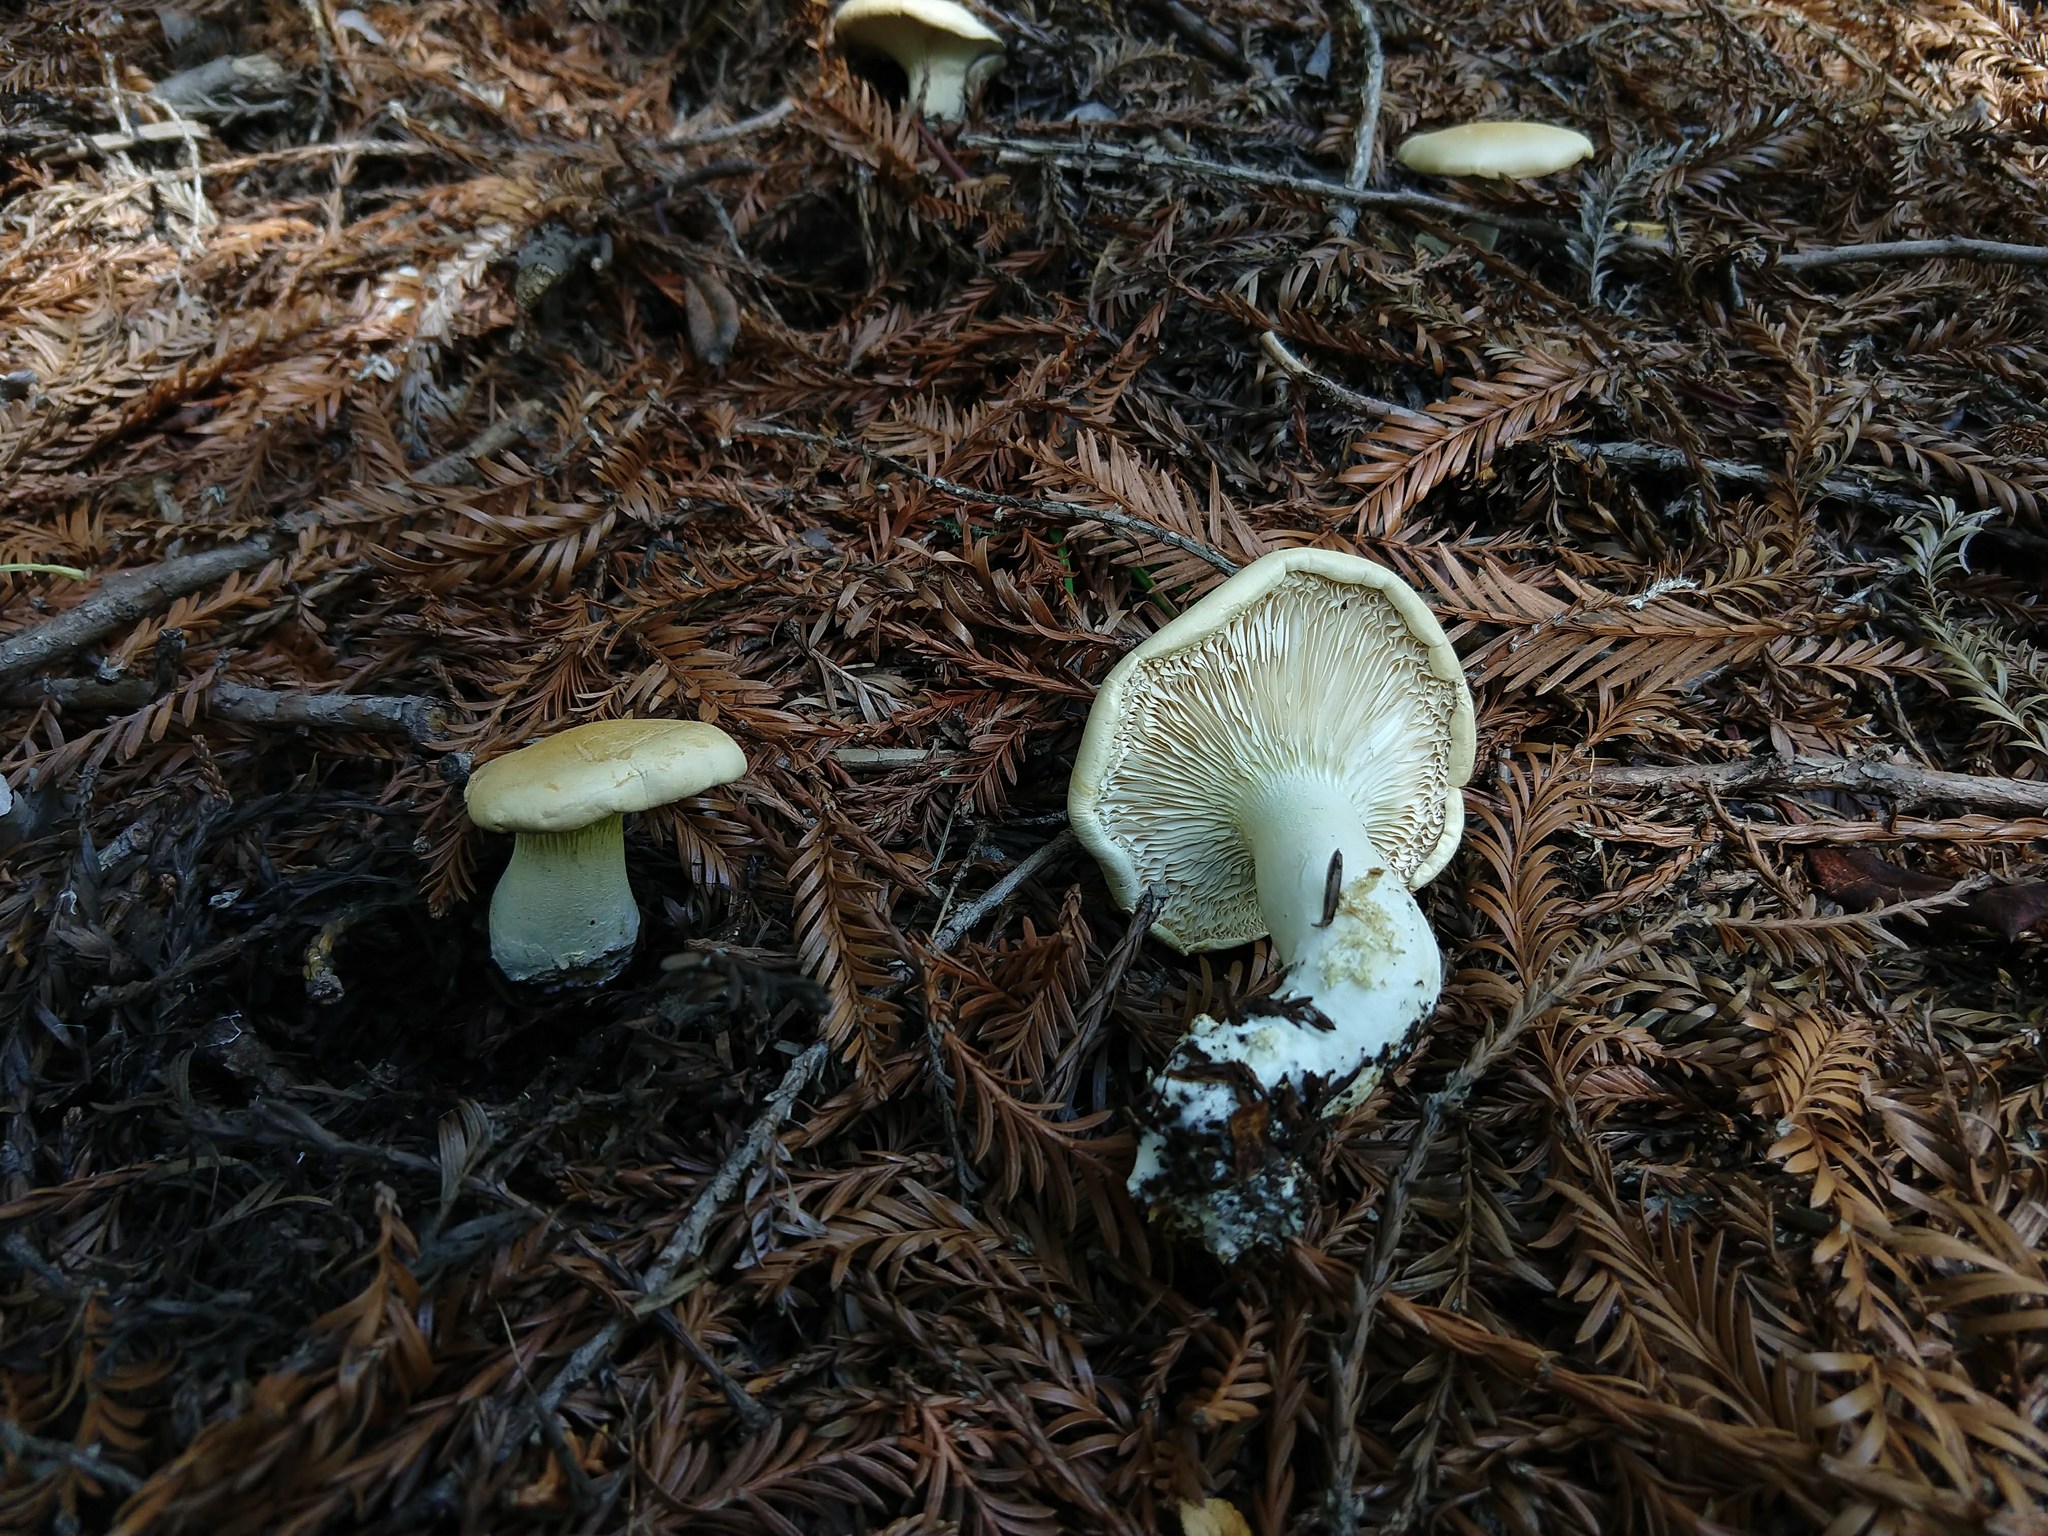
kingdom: Fungi
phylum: Basidiomycota
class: Agaricomycetes
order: Agaricales
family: Tricholomataceae
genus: Leucopaxillus
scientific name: Leucopaxillus albissimus
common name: Large white leucopax
